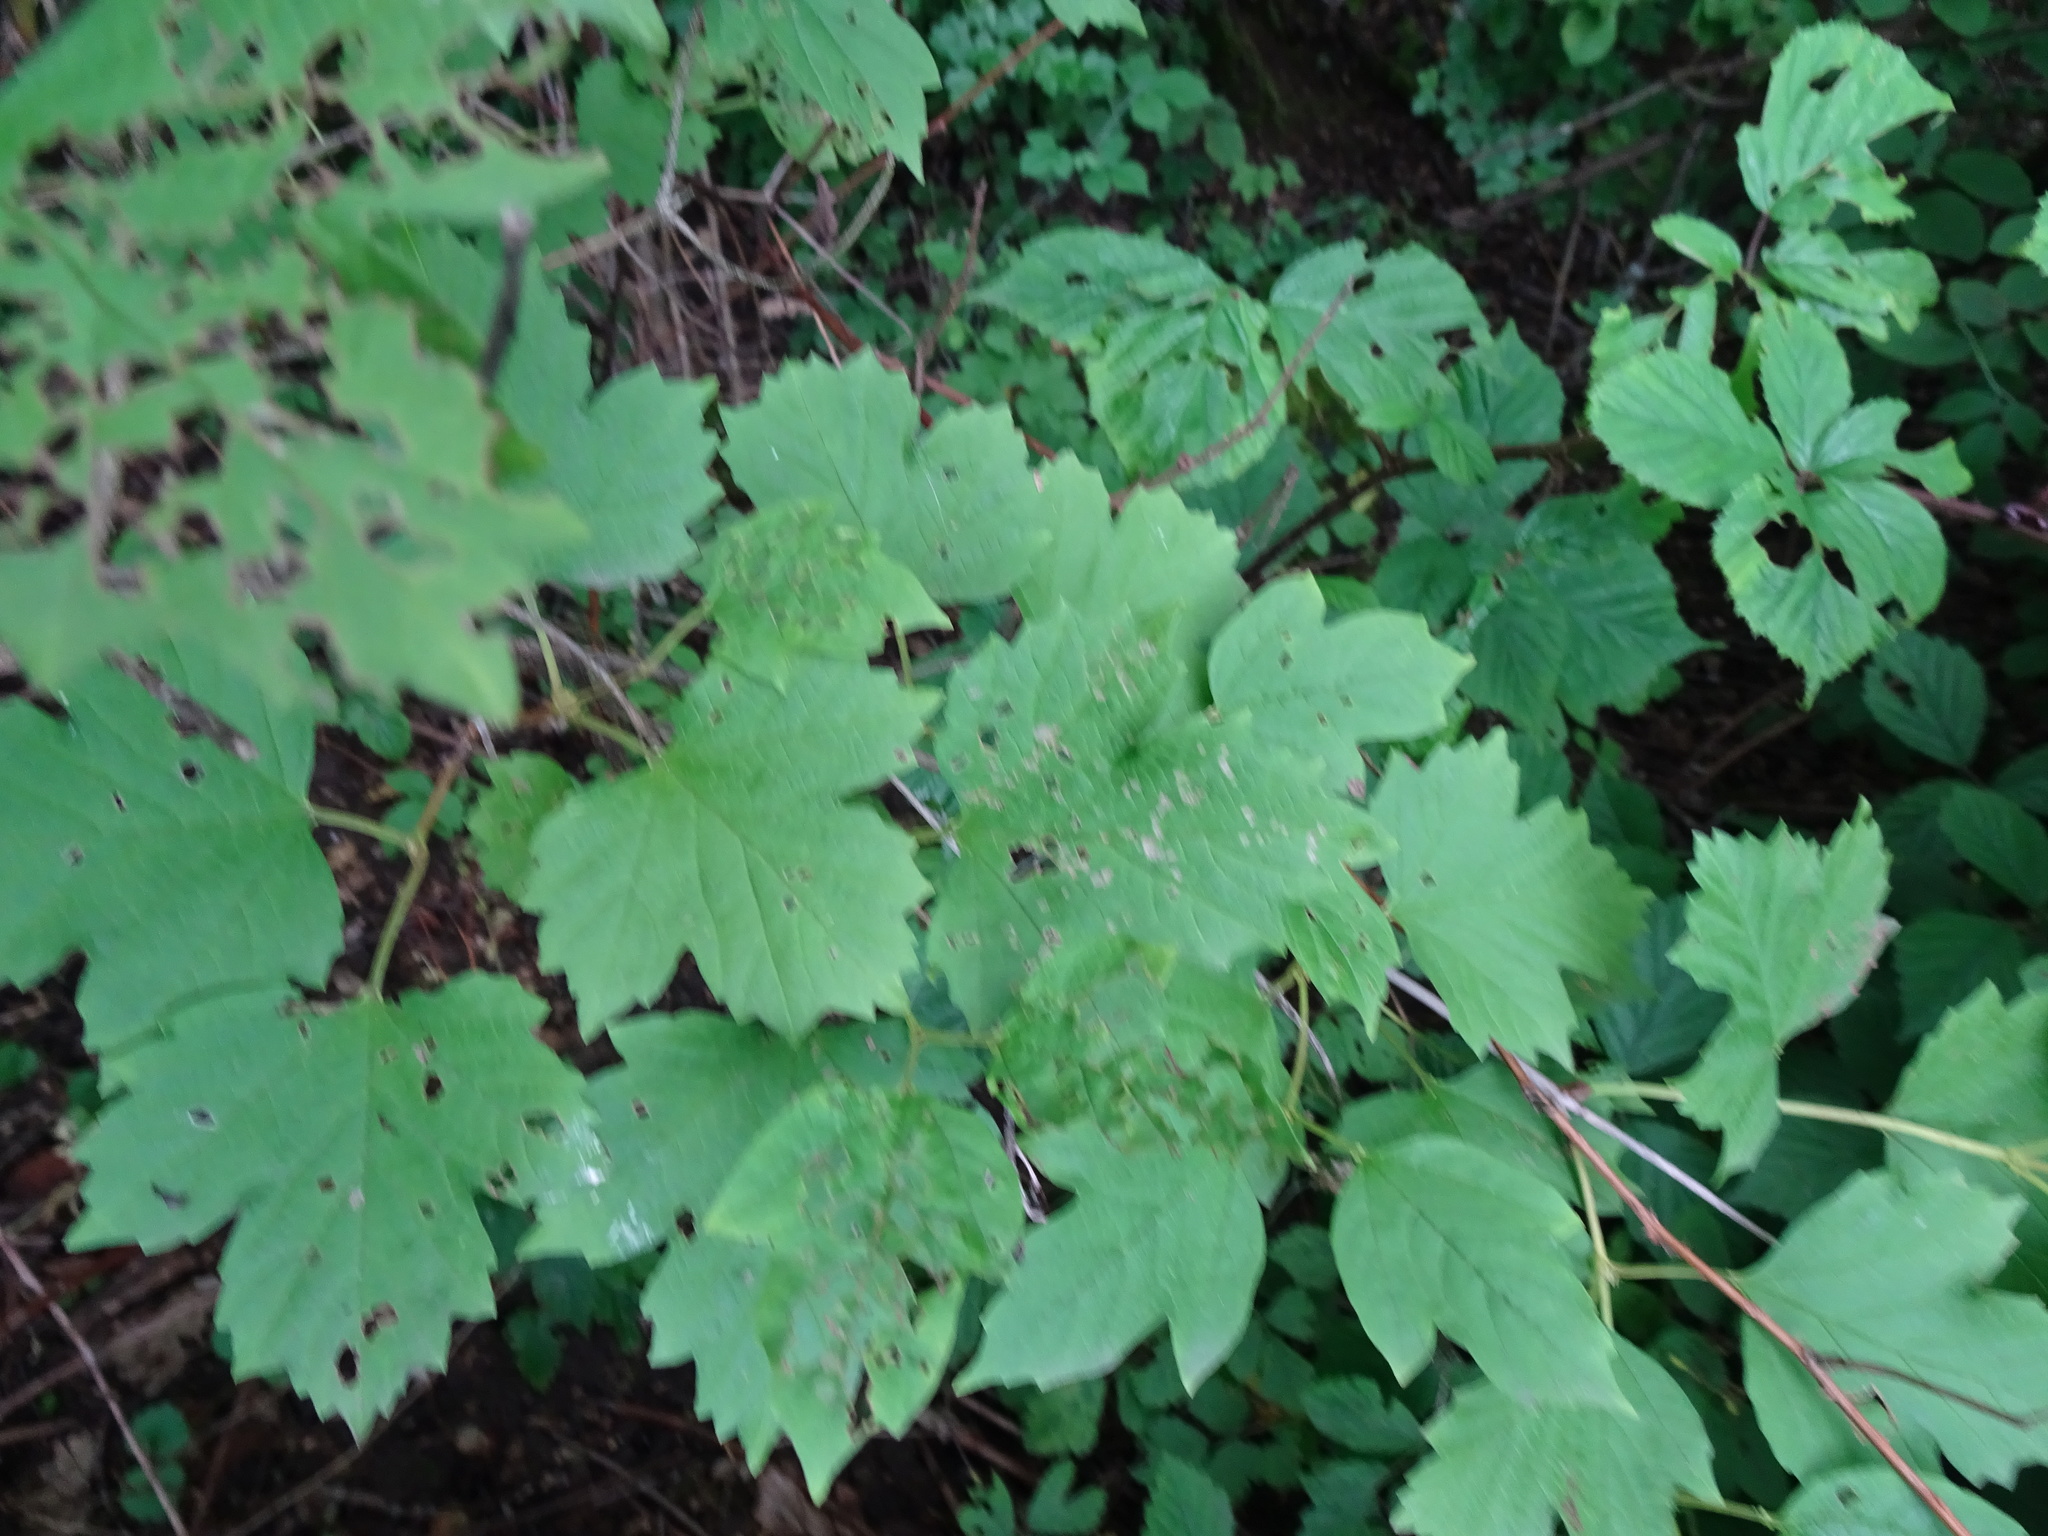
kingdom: Plantae
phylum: Tracheophyta
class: Magnoliopsida
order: Dipsacales
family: Viburnaceae
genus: Viburnum
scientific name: Viburnum opulus
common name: Guelder-rose
